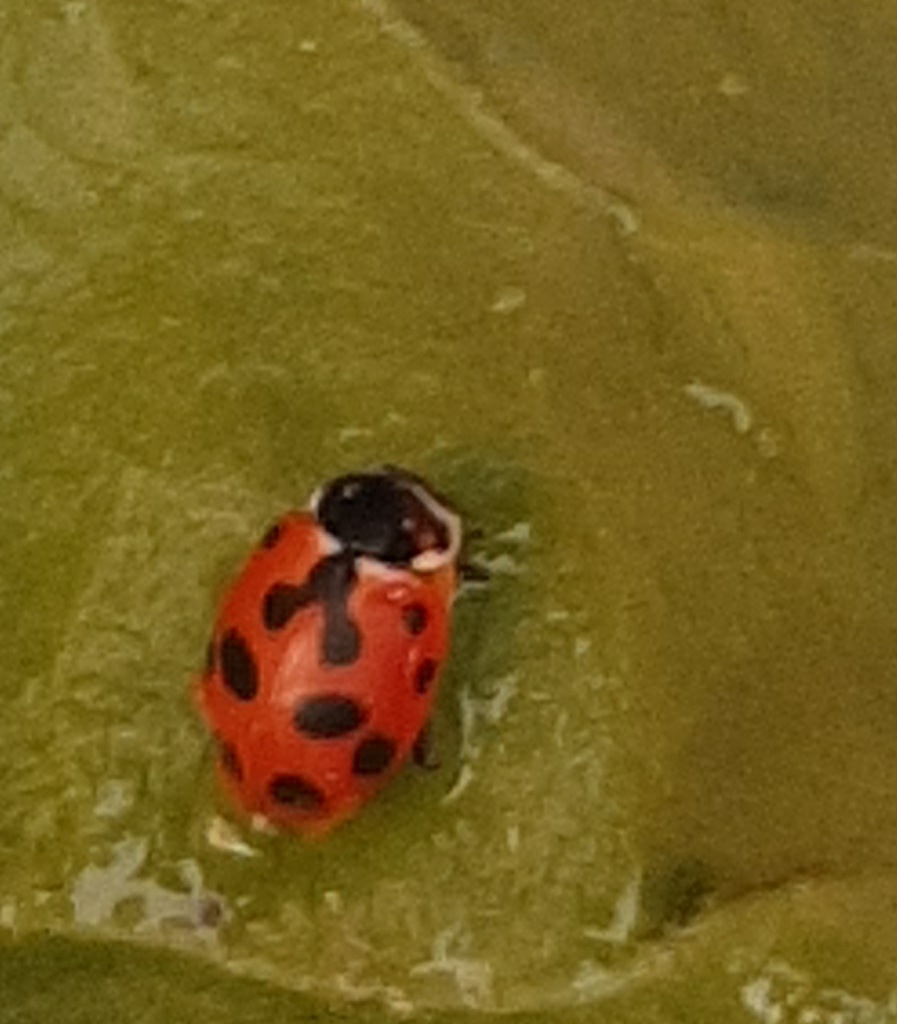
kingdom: Animalia
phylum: Arthropoda
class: Insecta
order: Coleoptera
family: Coccinellidae
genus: Hippodamia
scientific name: Hippodamia variegata
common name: Ladybird beetle
